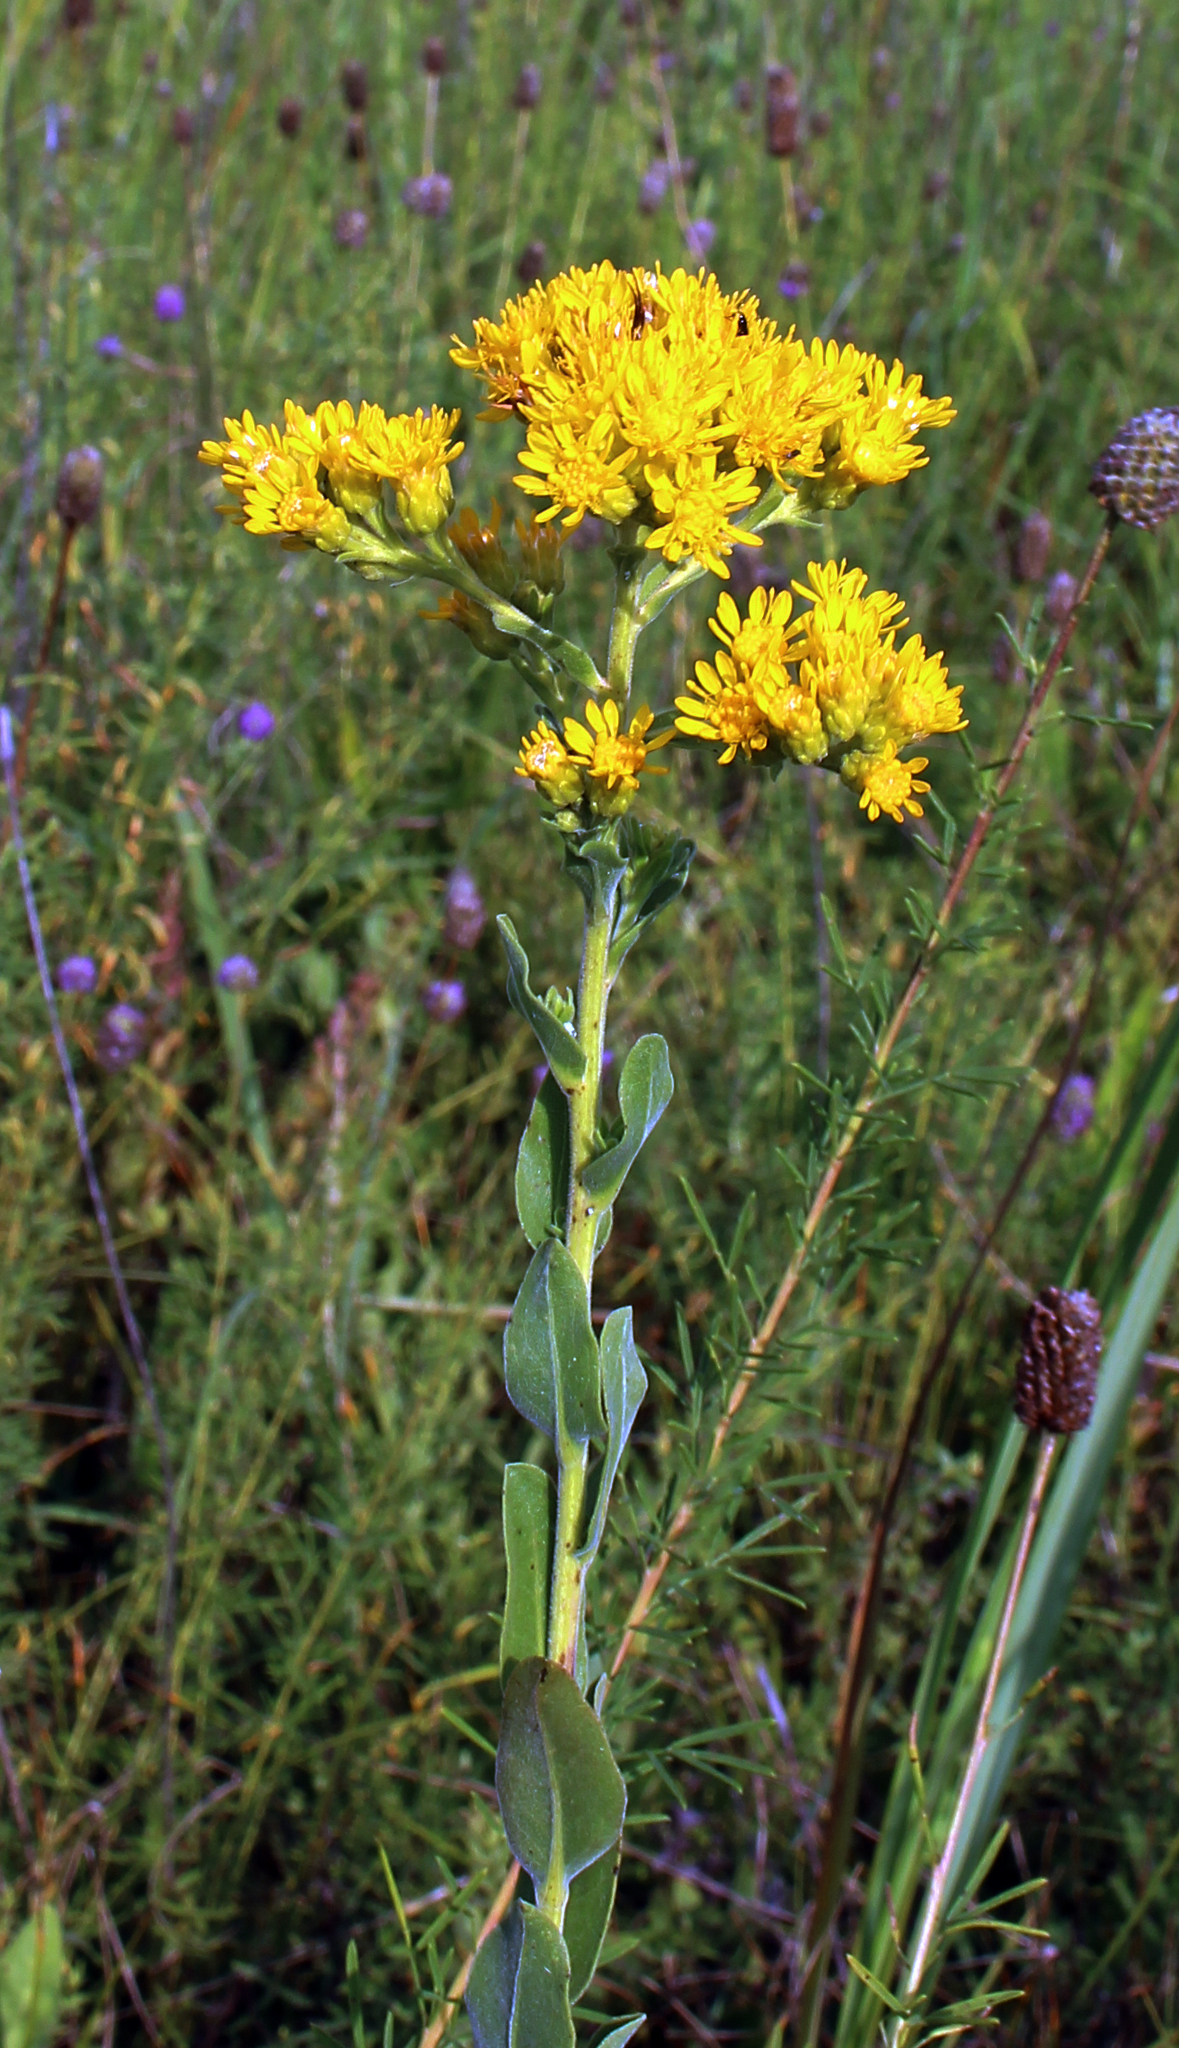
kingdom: Plantae
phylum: Tracheophyta
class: Magnoliopsida
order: Asterales
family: Asteraceae
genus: Solidago
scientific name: Solidago rigida
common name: Rigid goldenrod
